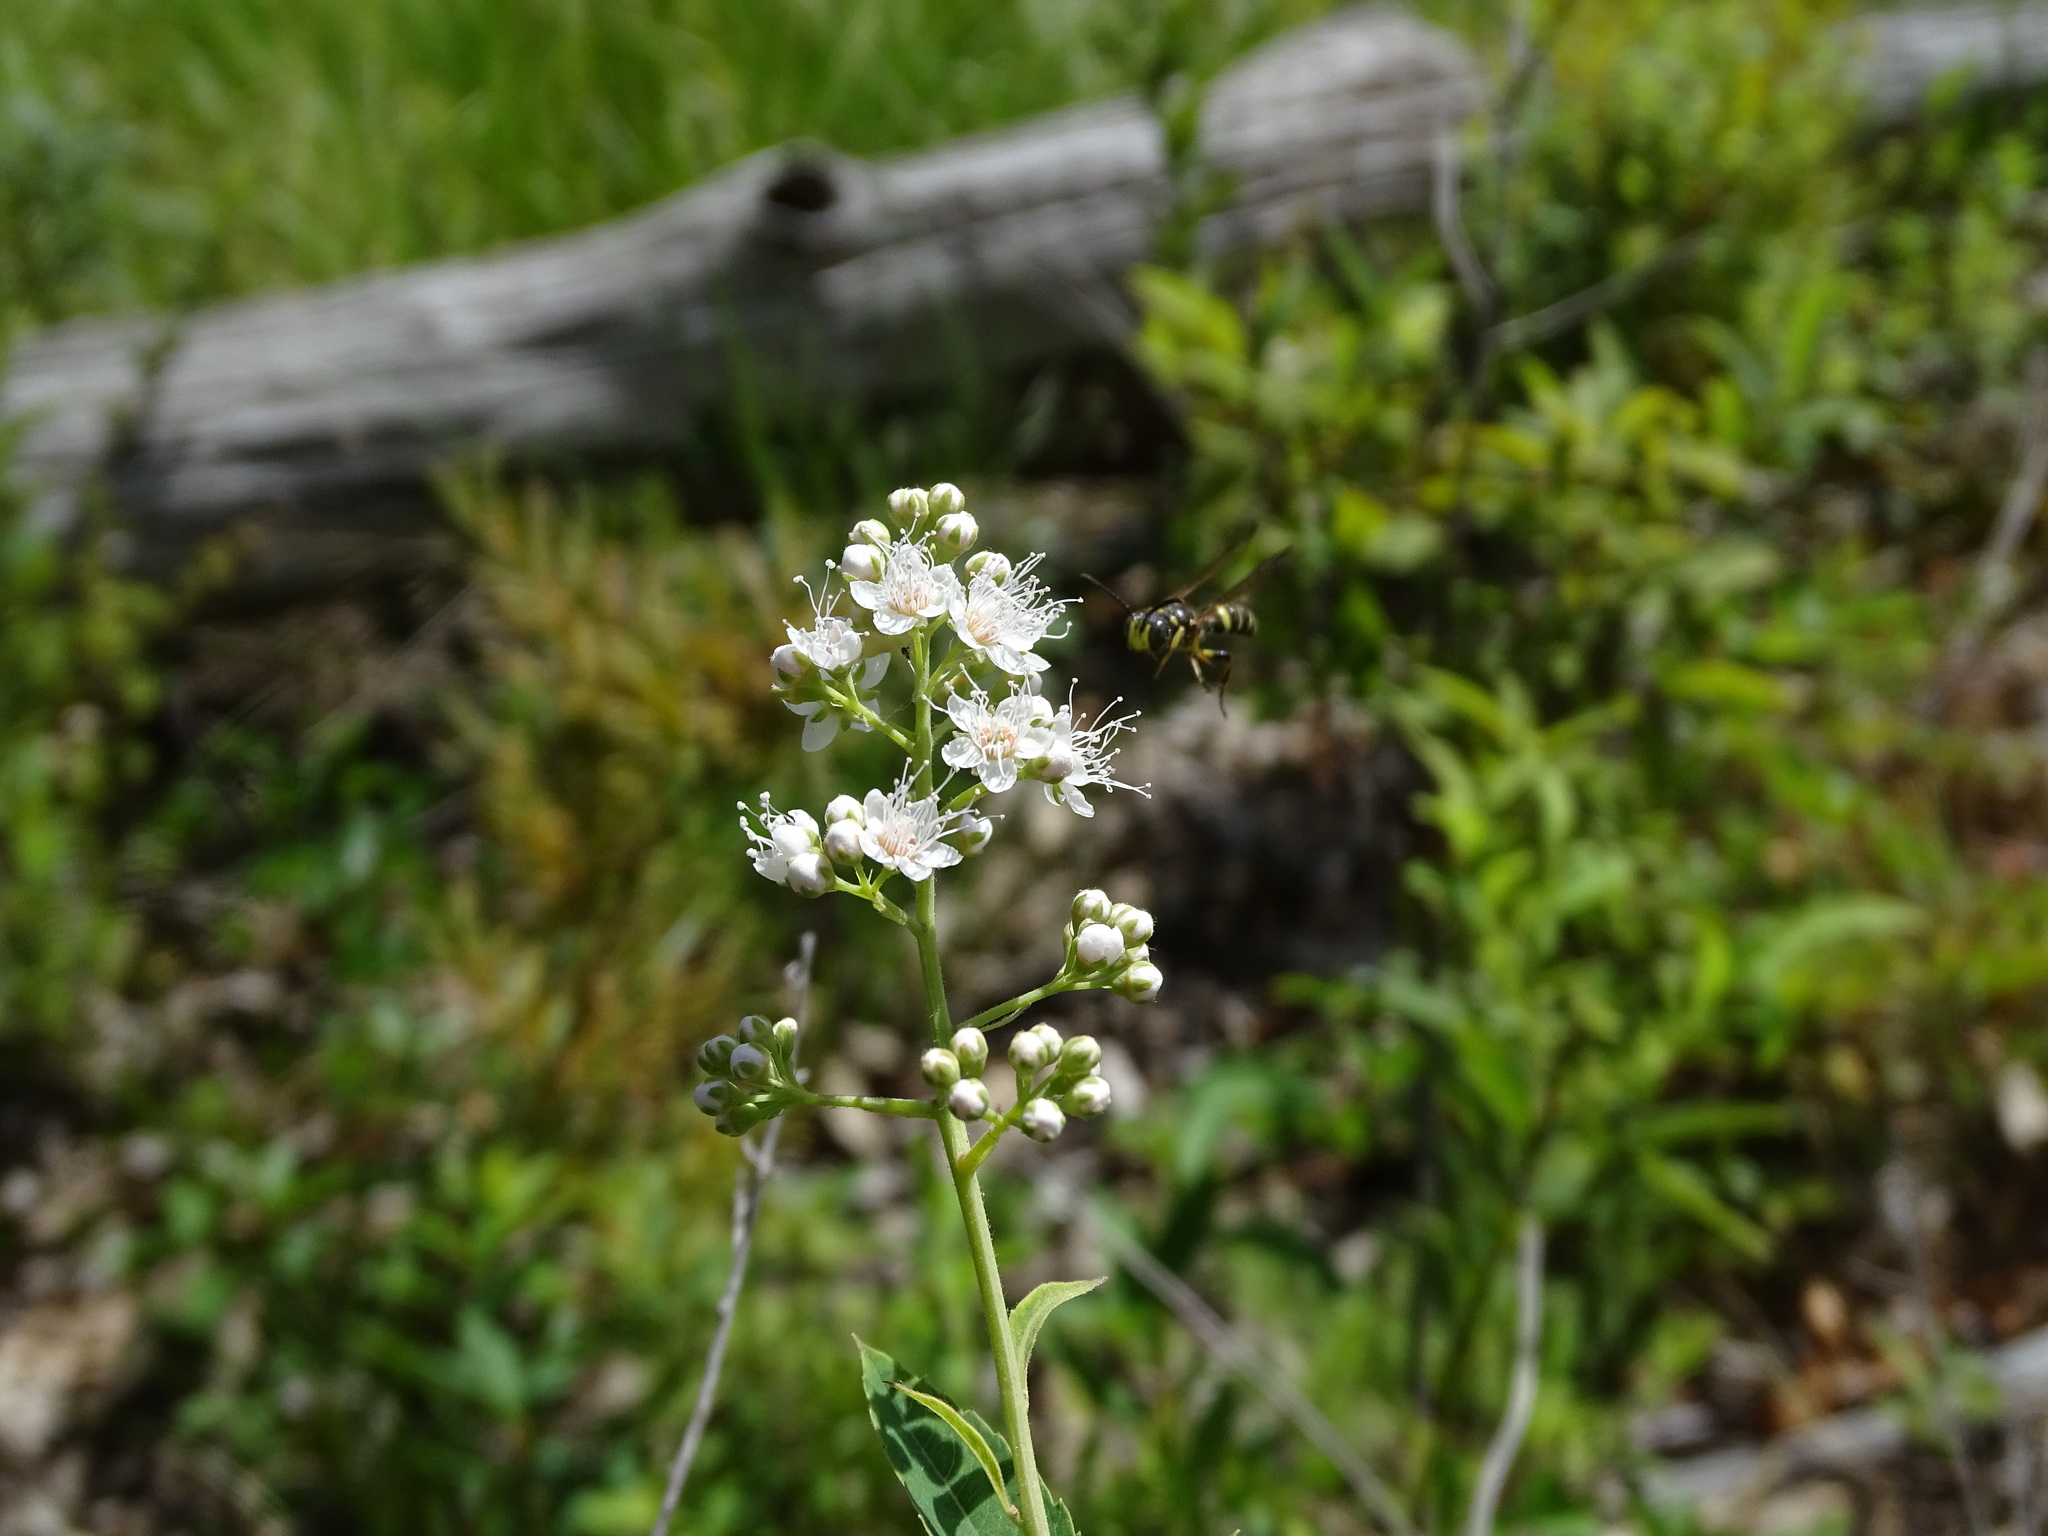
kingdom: Plantae
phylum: Tracheophyta
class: Magnoliopsida
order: Rosales
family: Rosaceae
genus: Spiraea
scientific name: Spiraea alba
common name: Pale bridewort
